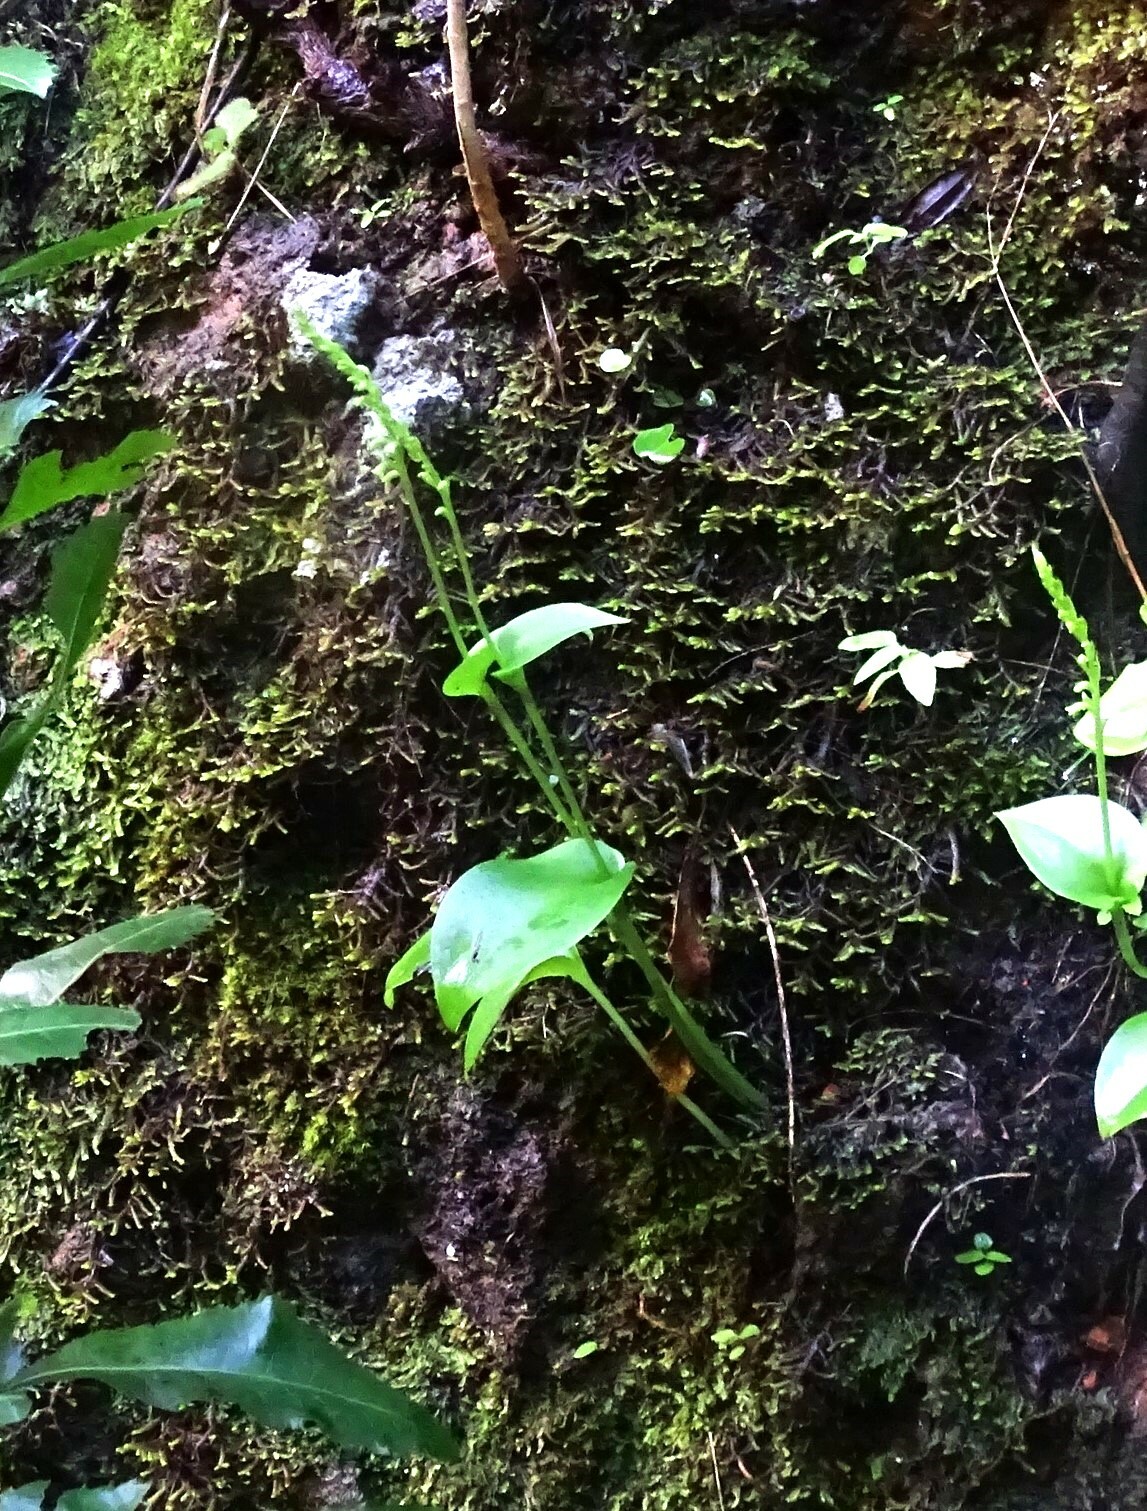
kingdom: Plantae
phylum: Tracheophyta
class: Liliopsida
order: Asparagales
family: Orchidaceae
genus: Gennaria
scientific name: Gennaria diphylla
